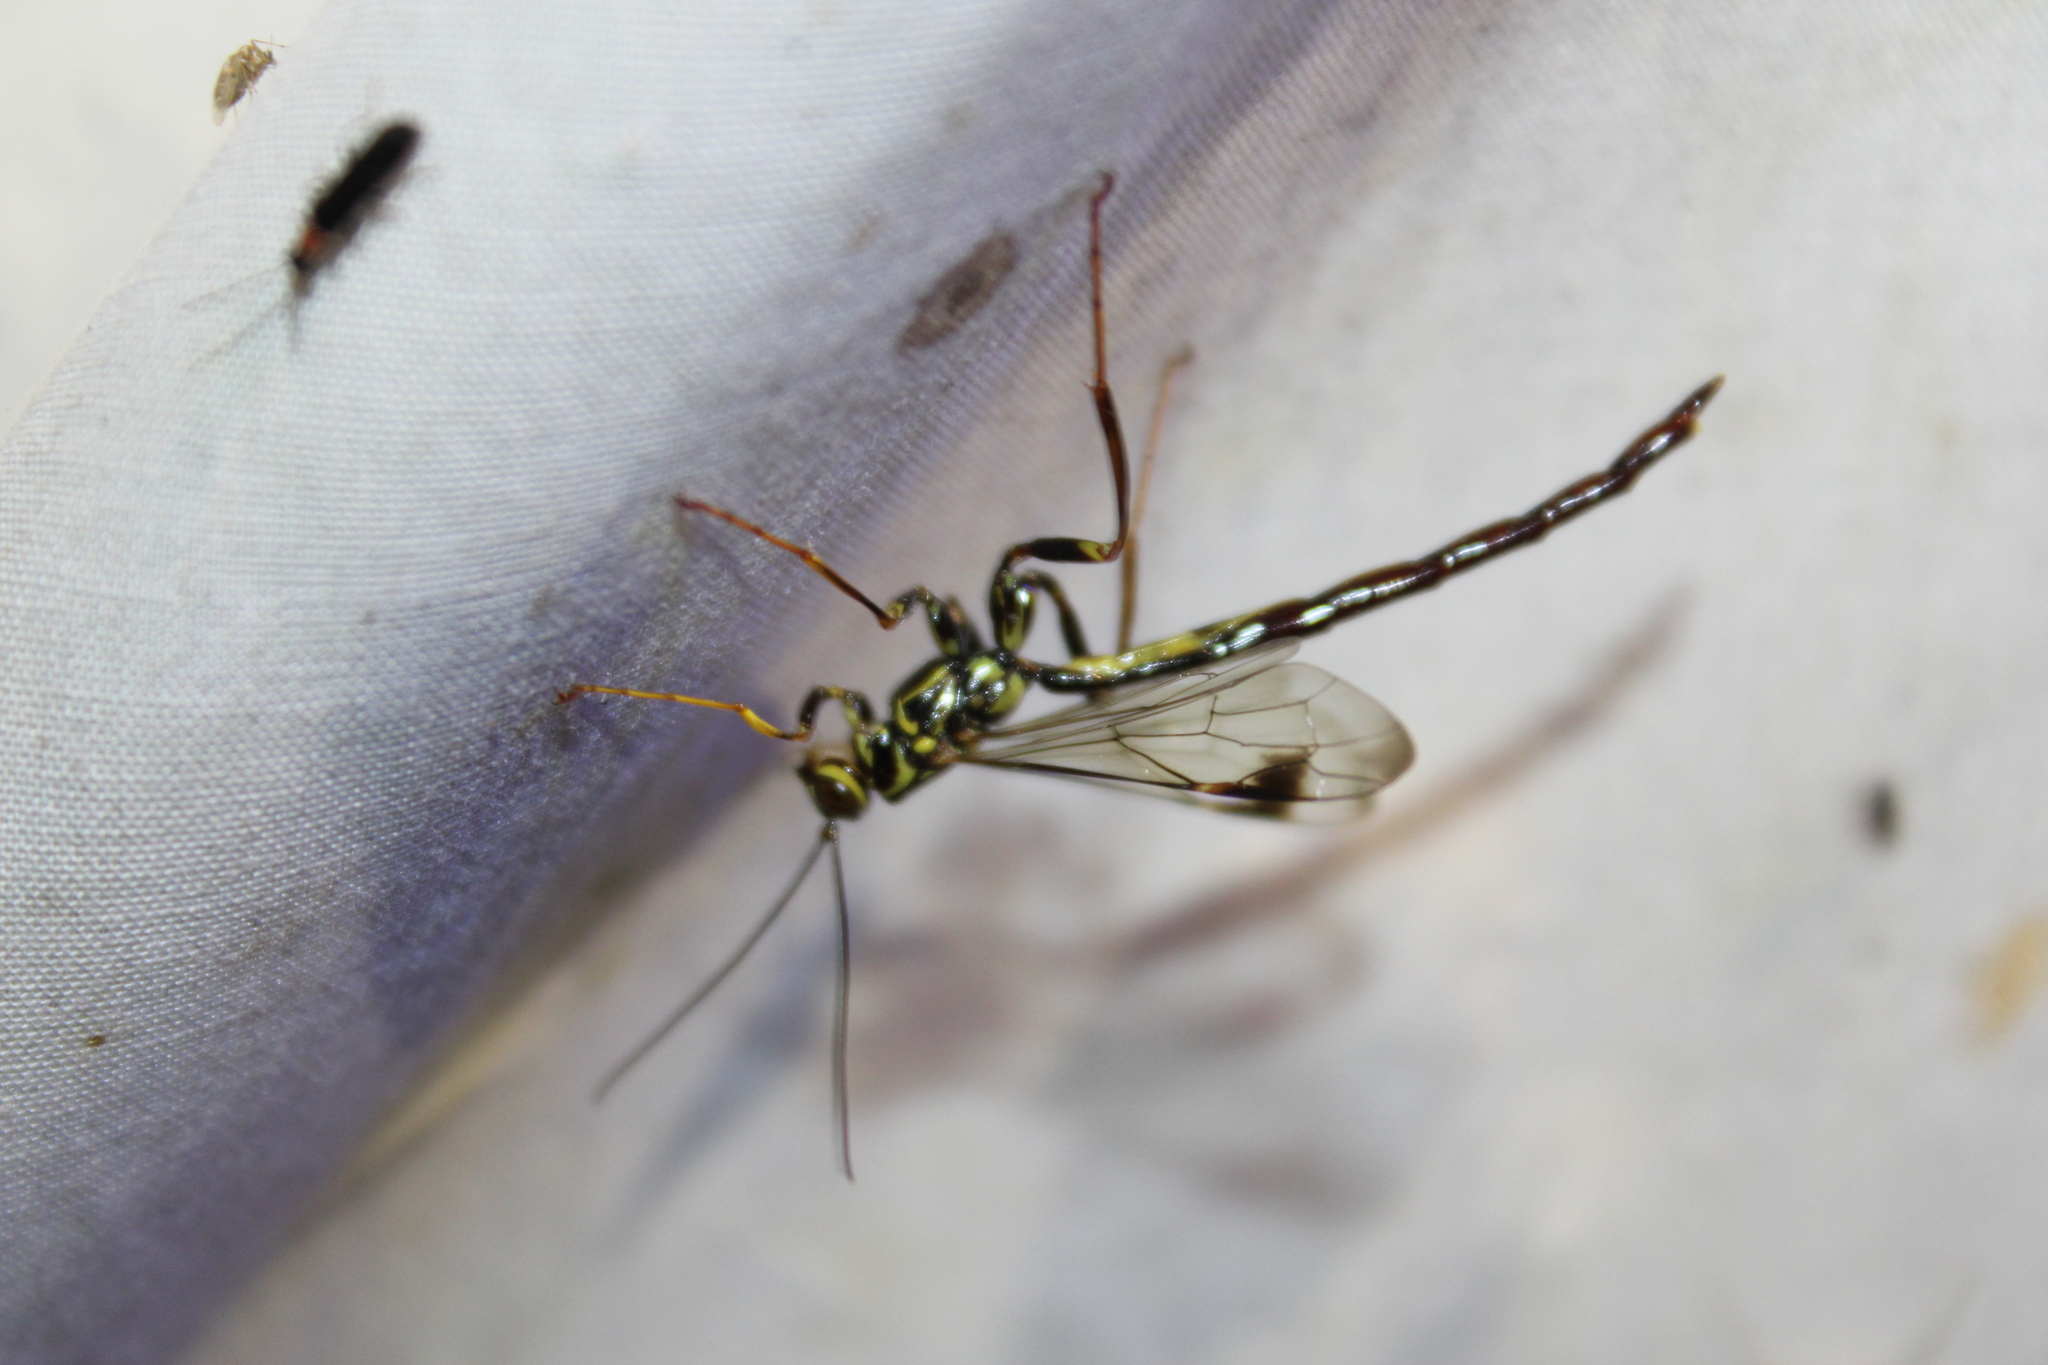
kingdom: Animalia
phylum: Arthropoda
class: Insecta
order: Hymenoptera
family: Ichneumonidae
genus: Megarhyssa
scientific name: Megarhyssa macrura
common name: Long-tailed giant ichneumonid wasp
